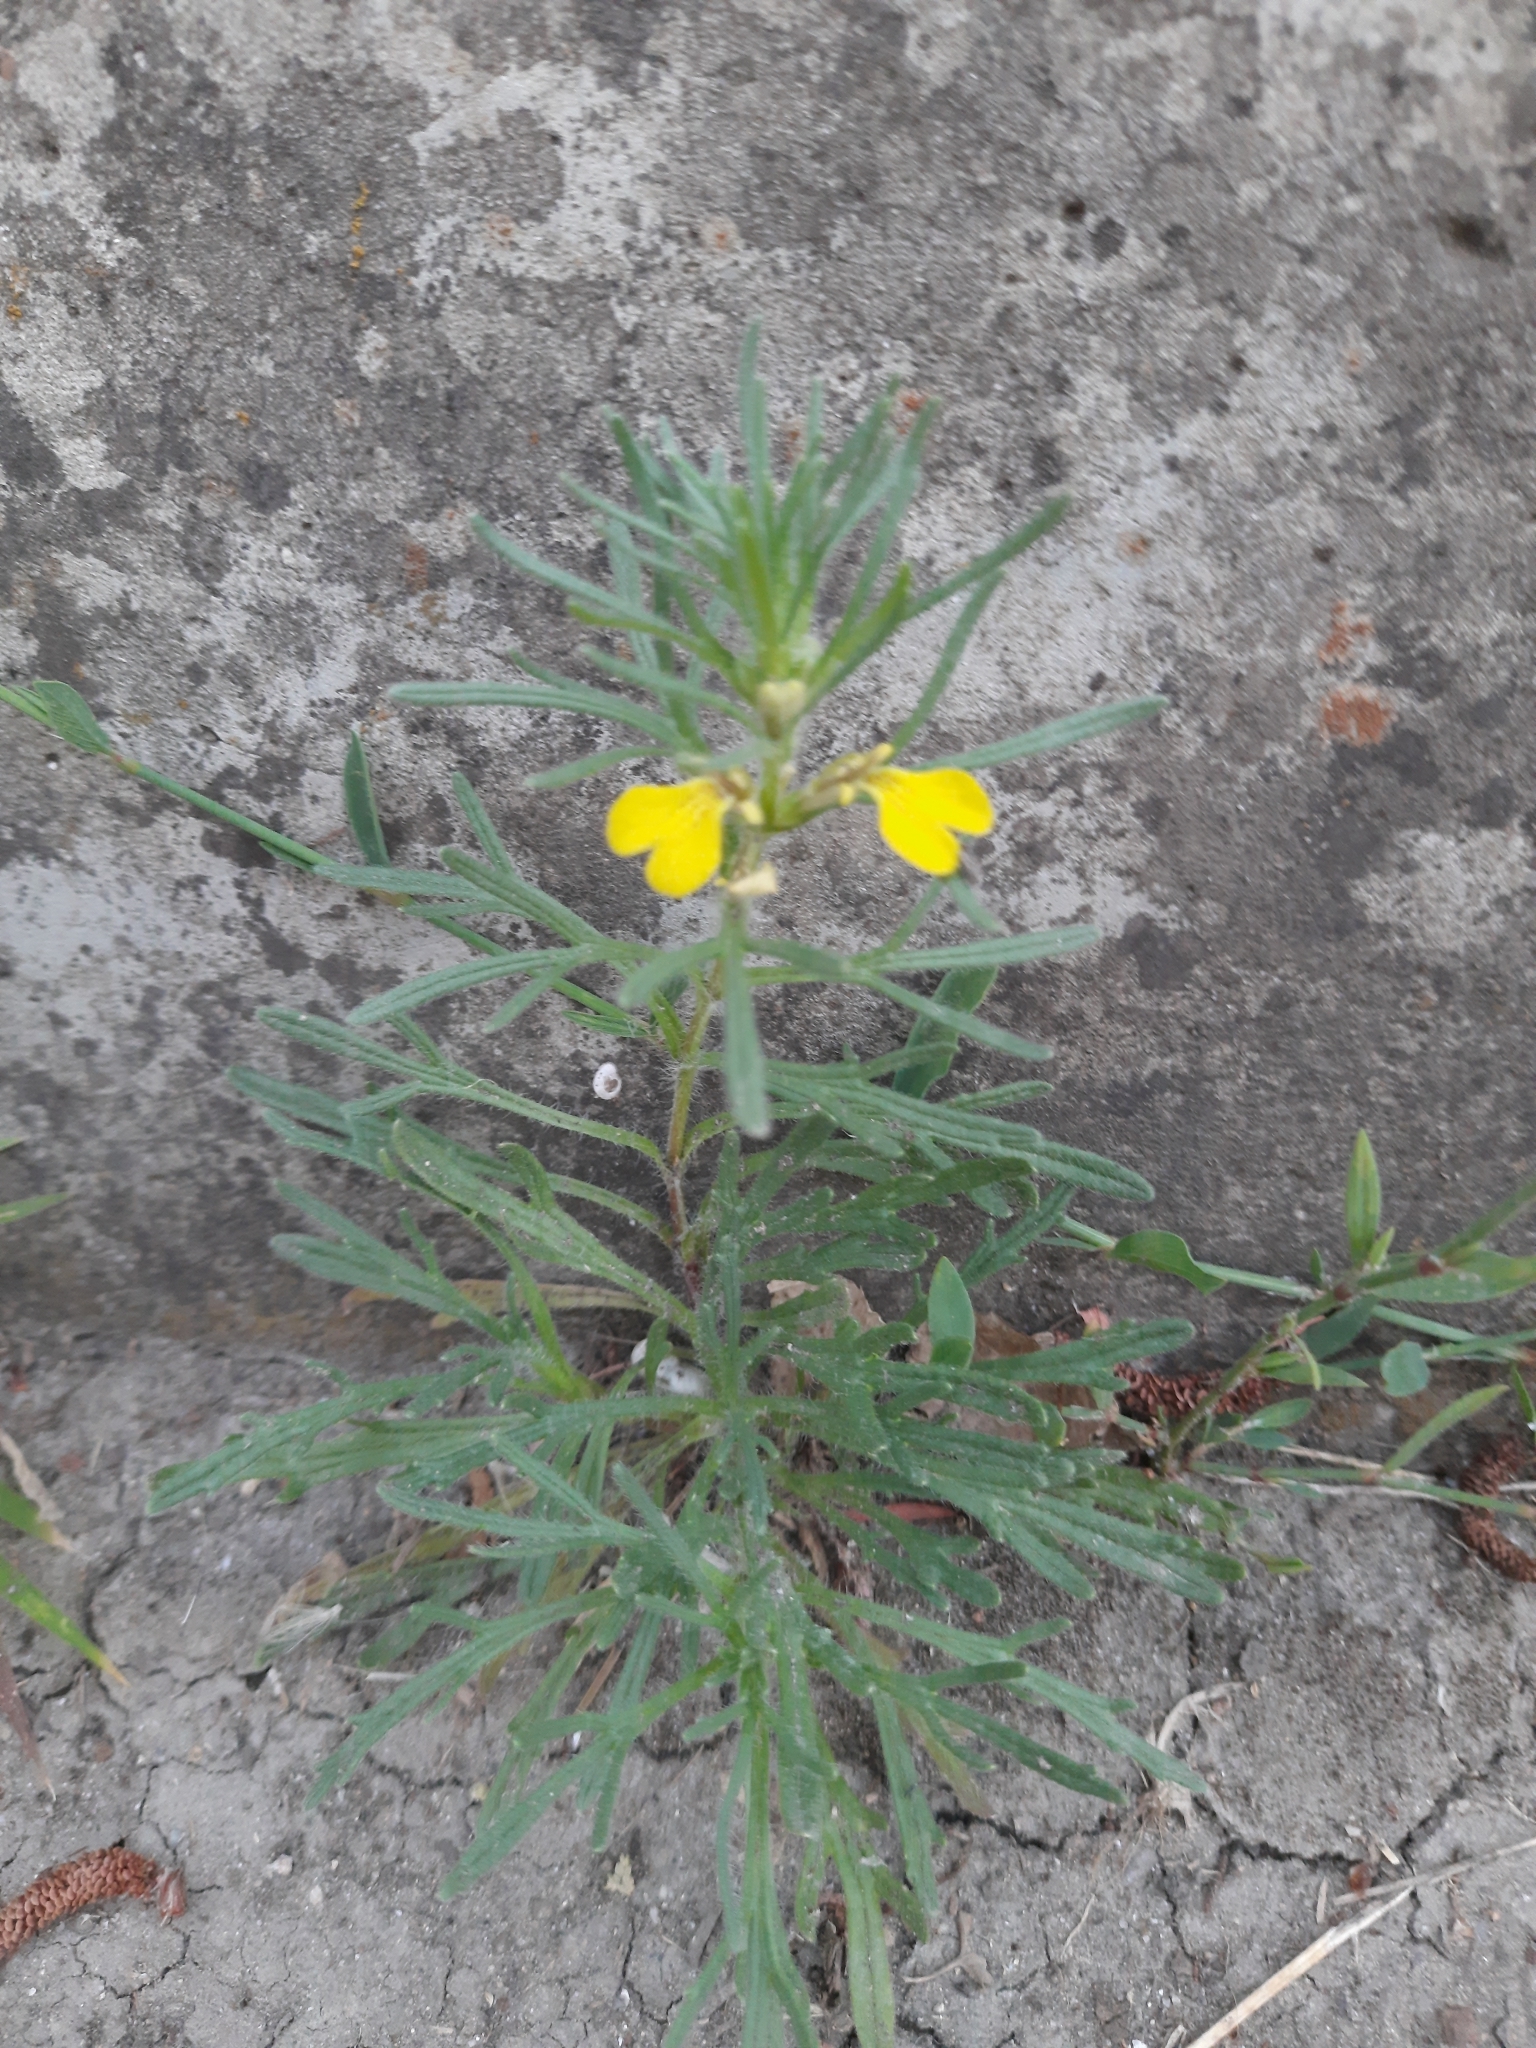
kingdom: Plantae
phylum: Tracheophyta
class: Magnoliopsida
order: Lamiales
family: Lamiaceae
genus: Ajuga
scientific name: Ajuga chamaepitys
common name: Ground-pine
